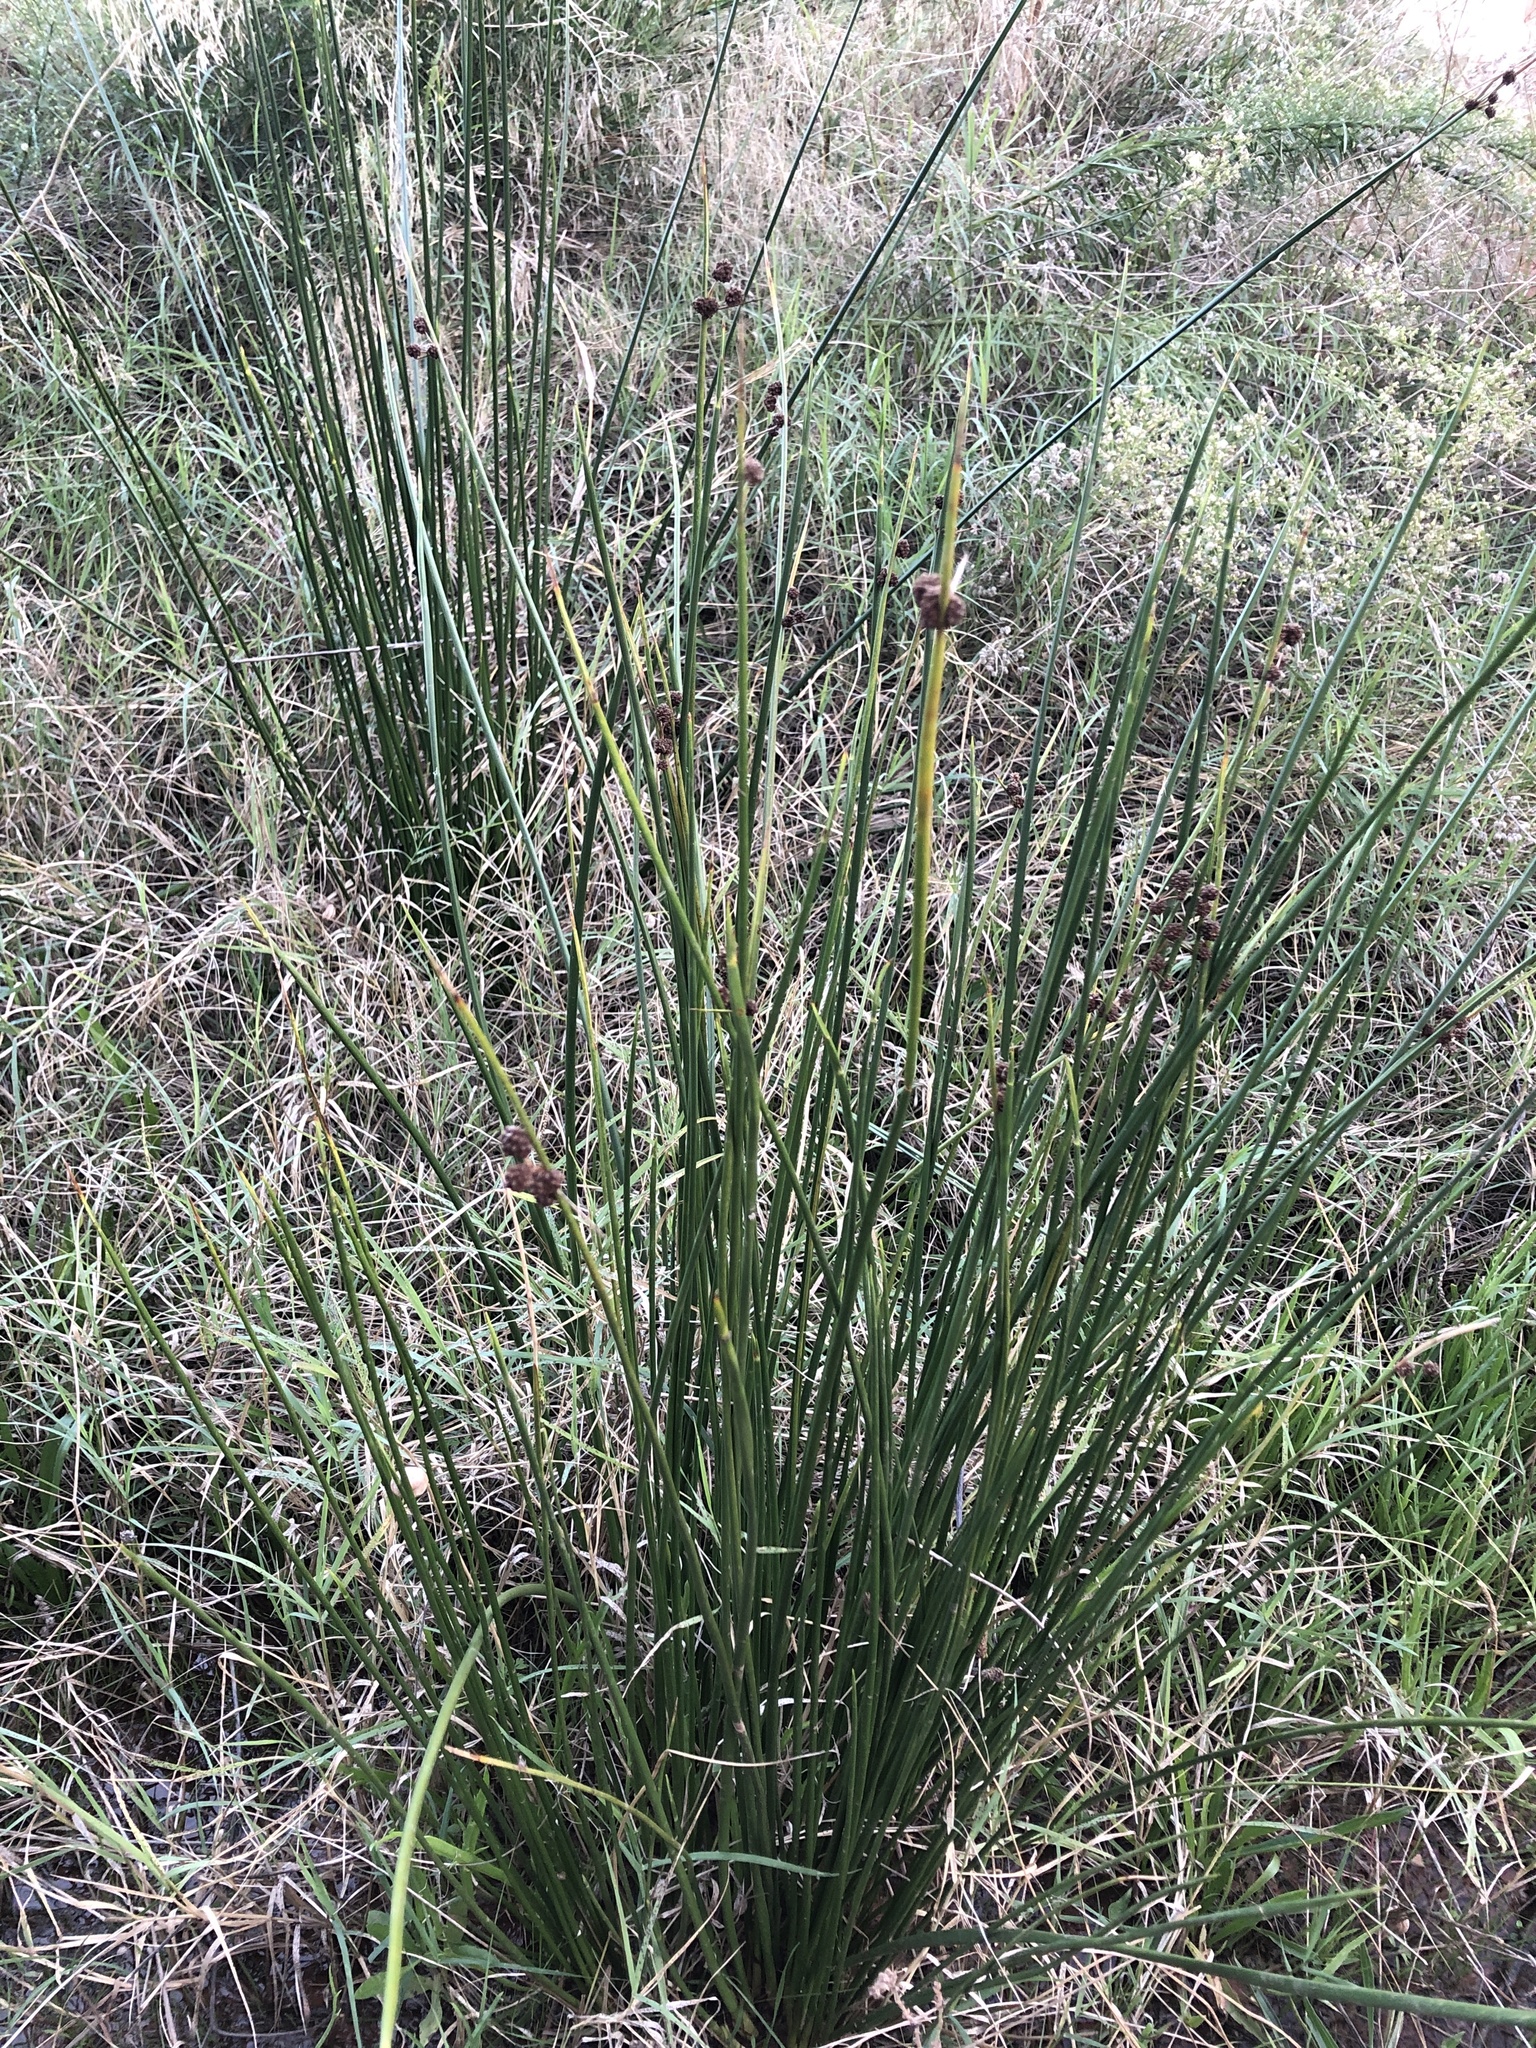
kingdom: Plantae
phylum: Tracheophyta
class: Liliopsida
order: Poales
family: Cyperaceae
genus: Scirpoides
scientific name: Scirpoides holoschoenus
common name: Round-headed club-rush
